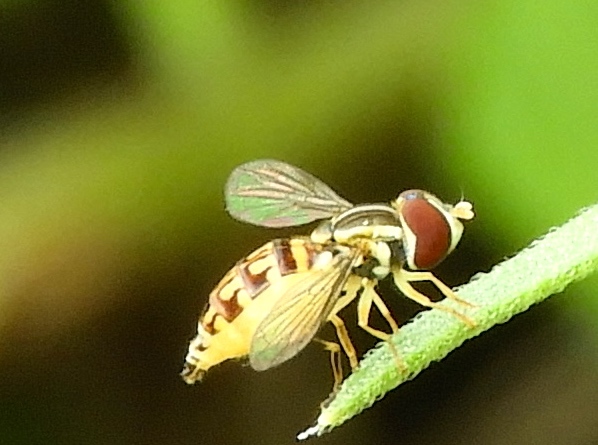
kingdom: Animalia
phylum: Arthropoda
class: Insecta
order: Diptera
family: Syrphidae
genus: Toxomerus
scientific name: Toxomerus pictus
